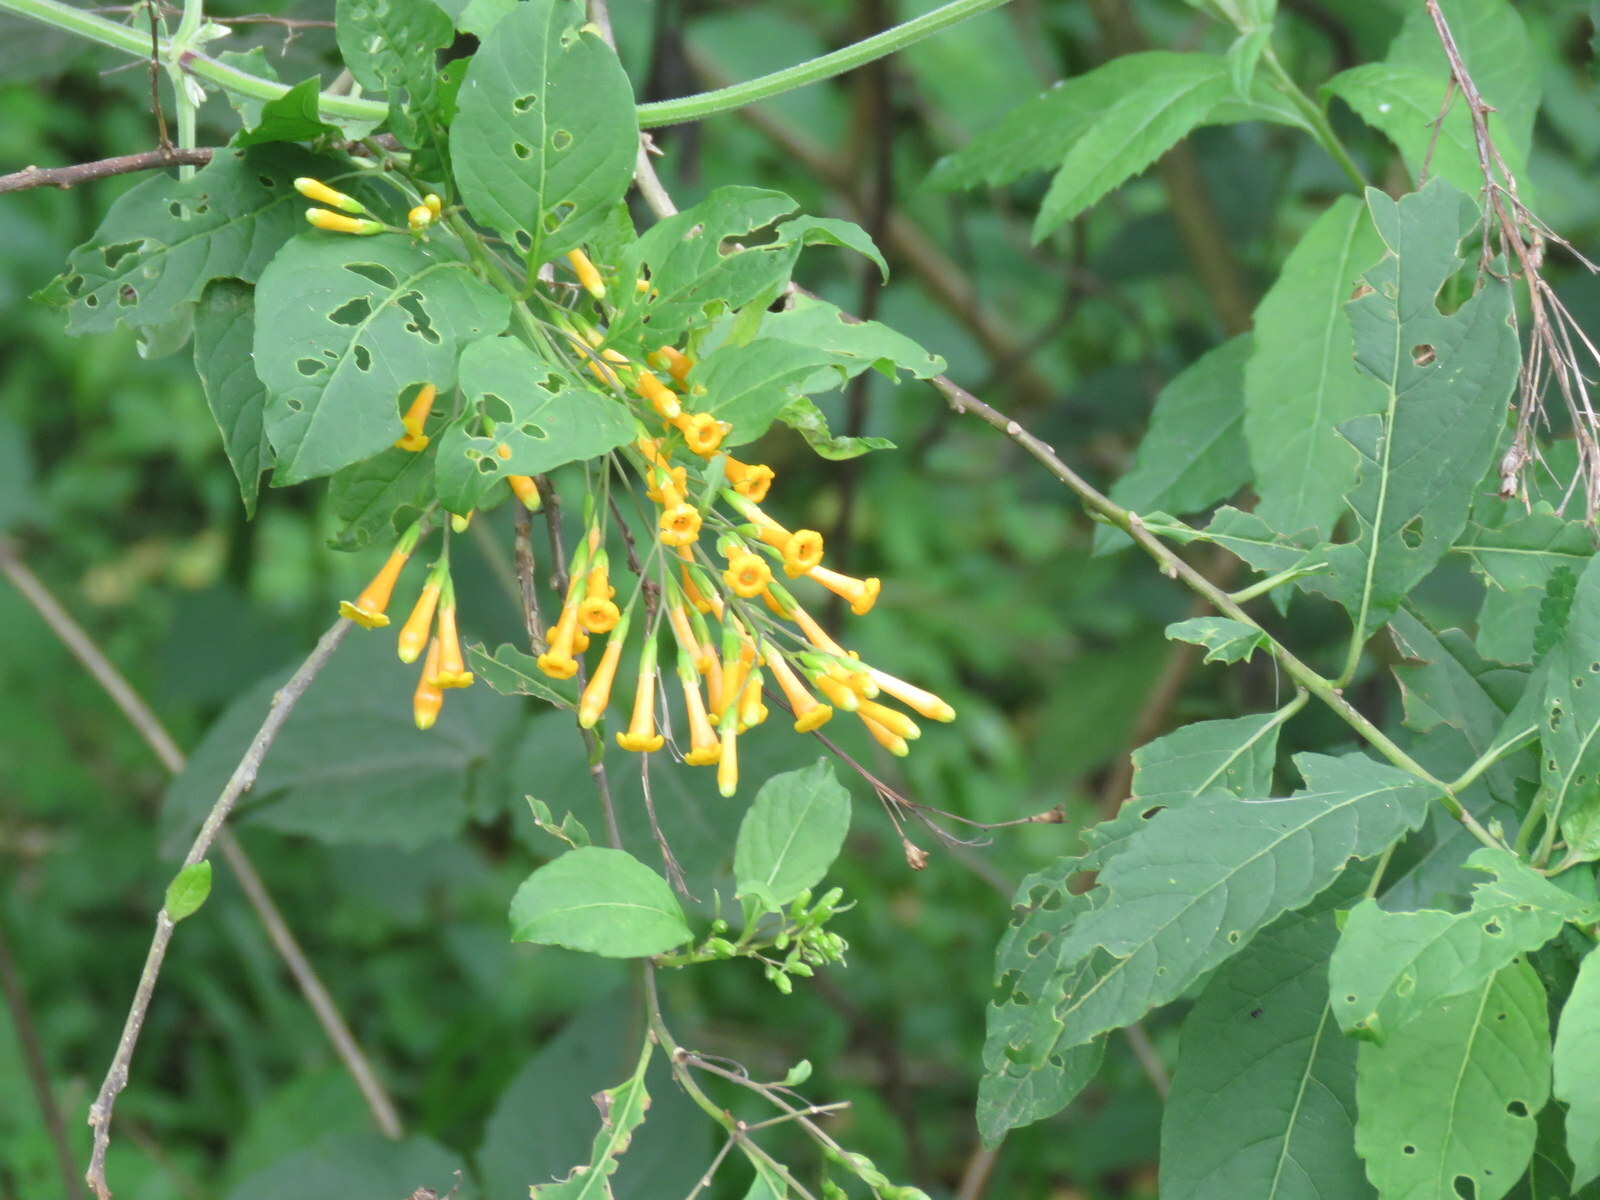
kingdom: Plantae
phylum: Tracheophyta
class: Magnoliopsida
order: Solanales
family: Solanaceae
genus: Cestrum
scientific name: Cestrum lorentzianum
